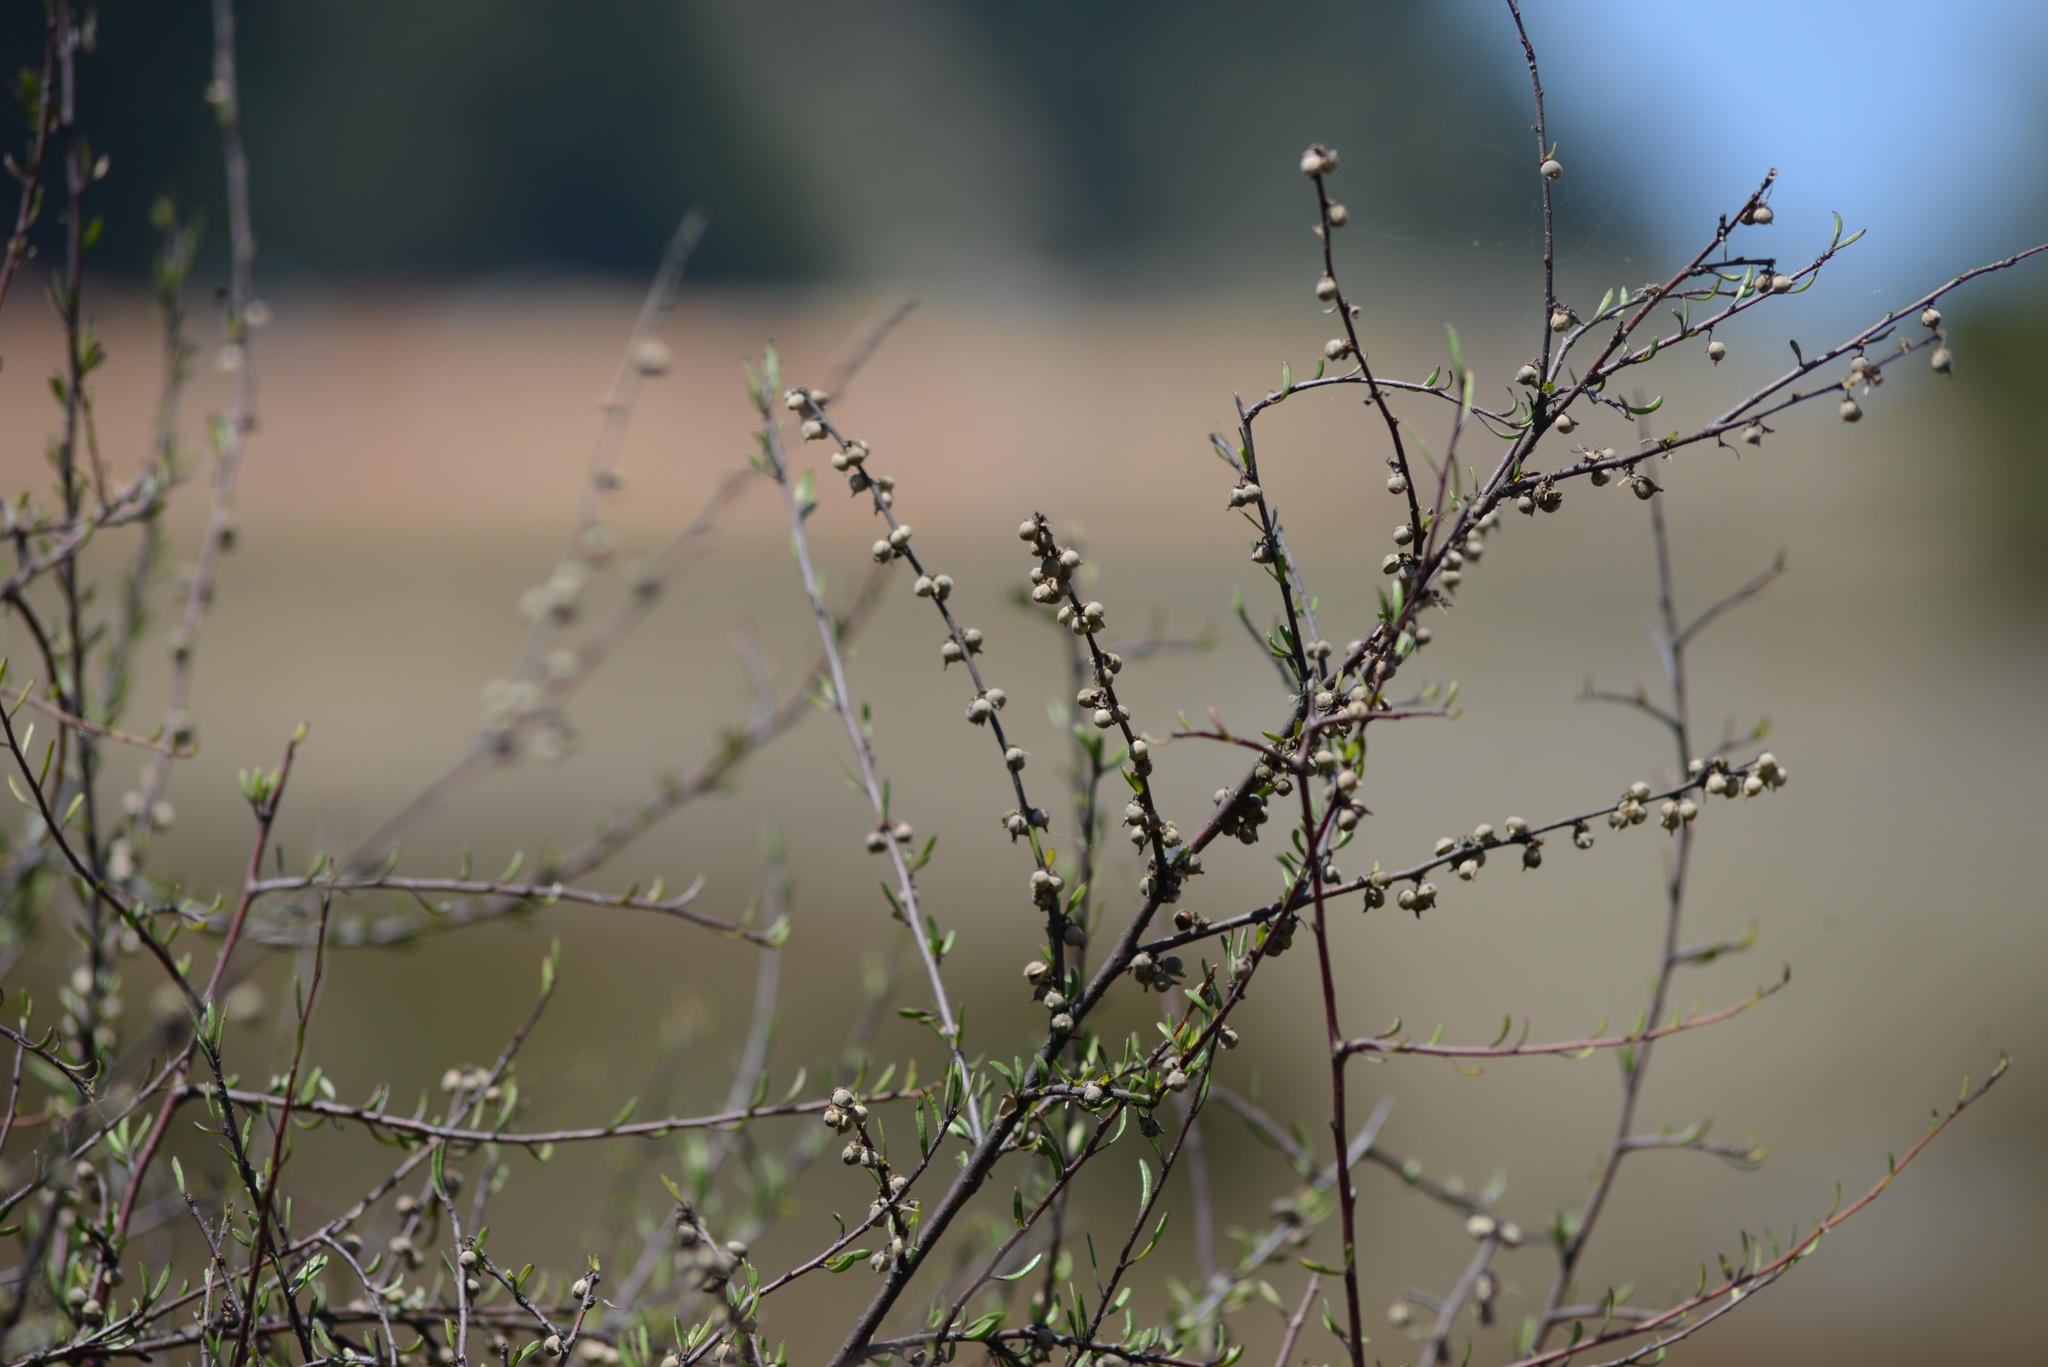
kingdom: Plantae
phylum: Tracheophyta
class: Magnoliopsida
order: Malvales
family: Malvaceae
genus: Plagianthus
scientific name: Plagianthus divaricatus
